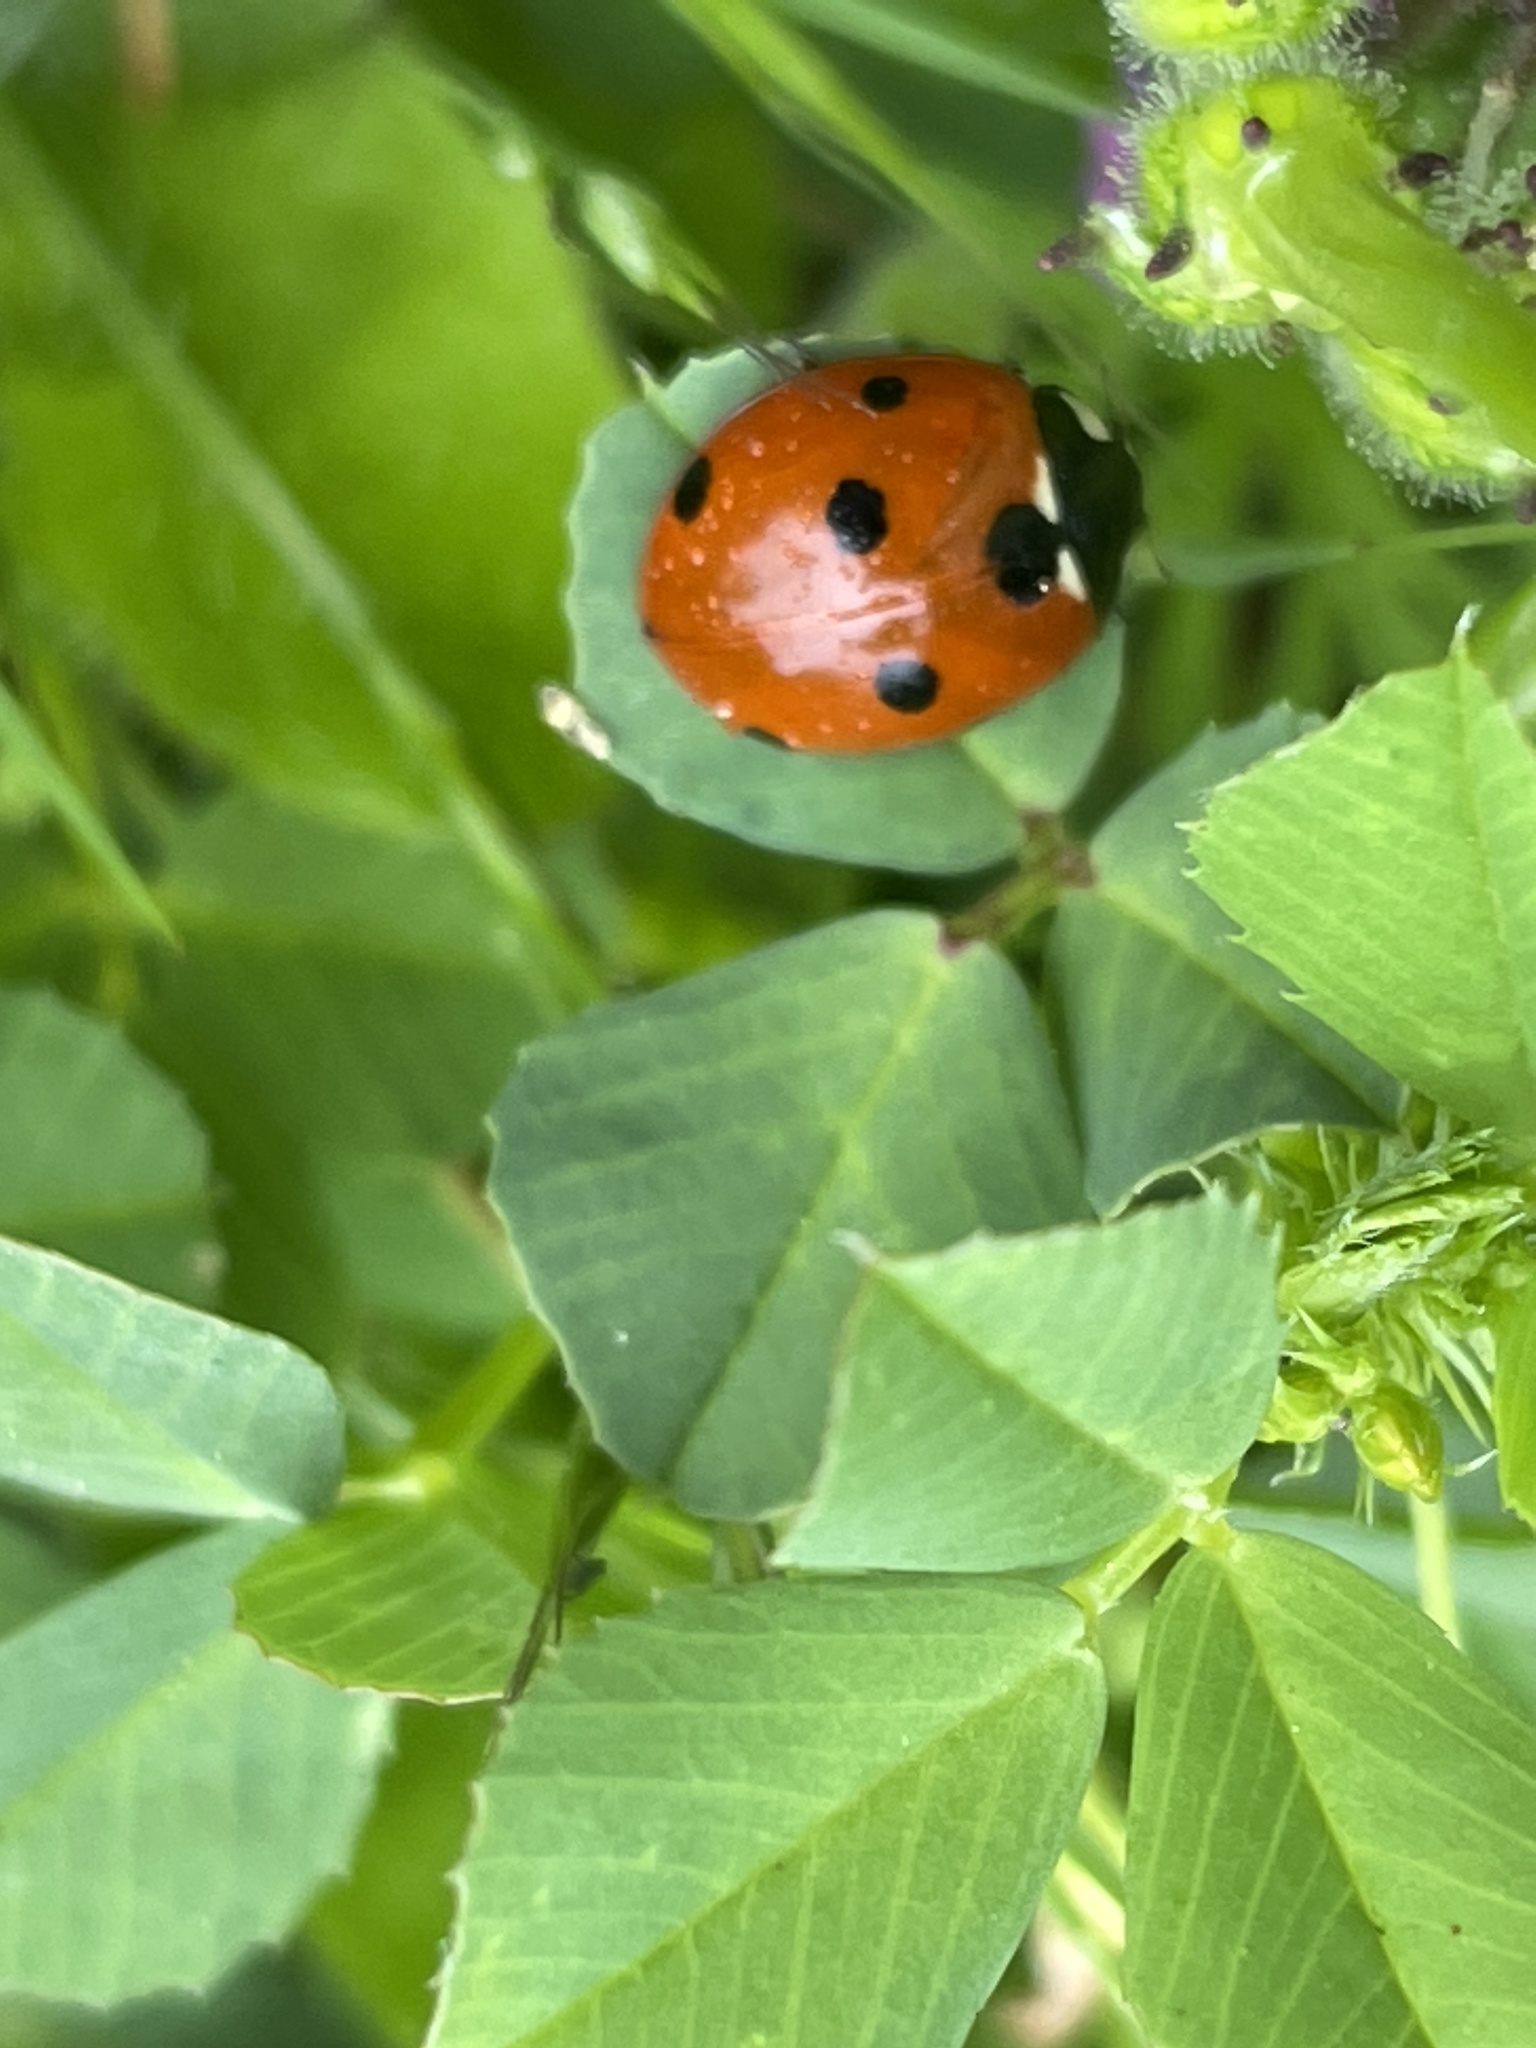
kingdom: Animalia
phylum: Arthropoda
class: Insecta
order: Coleoptera
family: Coccinellidae
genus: Coccinella
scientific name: Coccinella septempunctata
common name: Sevenspotted lady beetle
